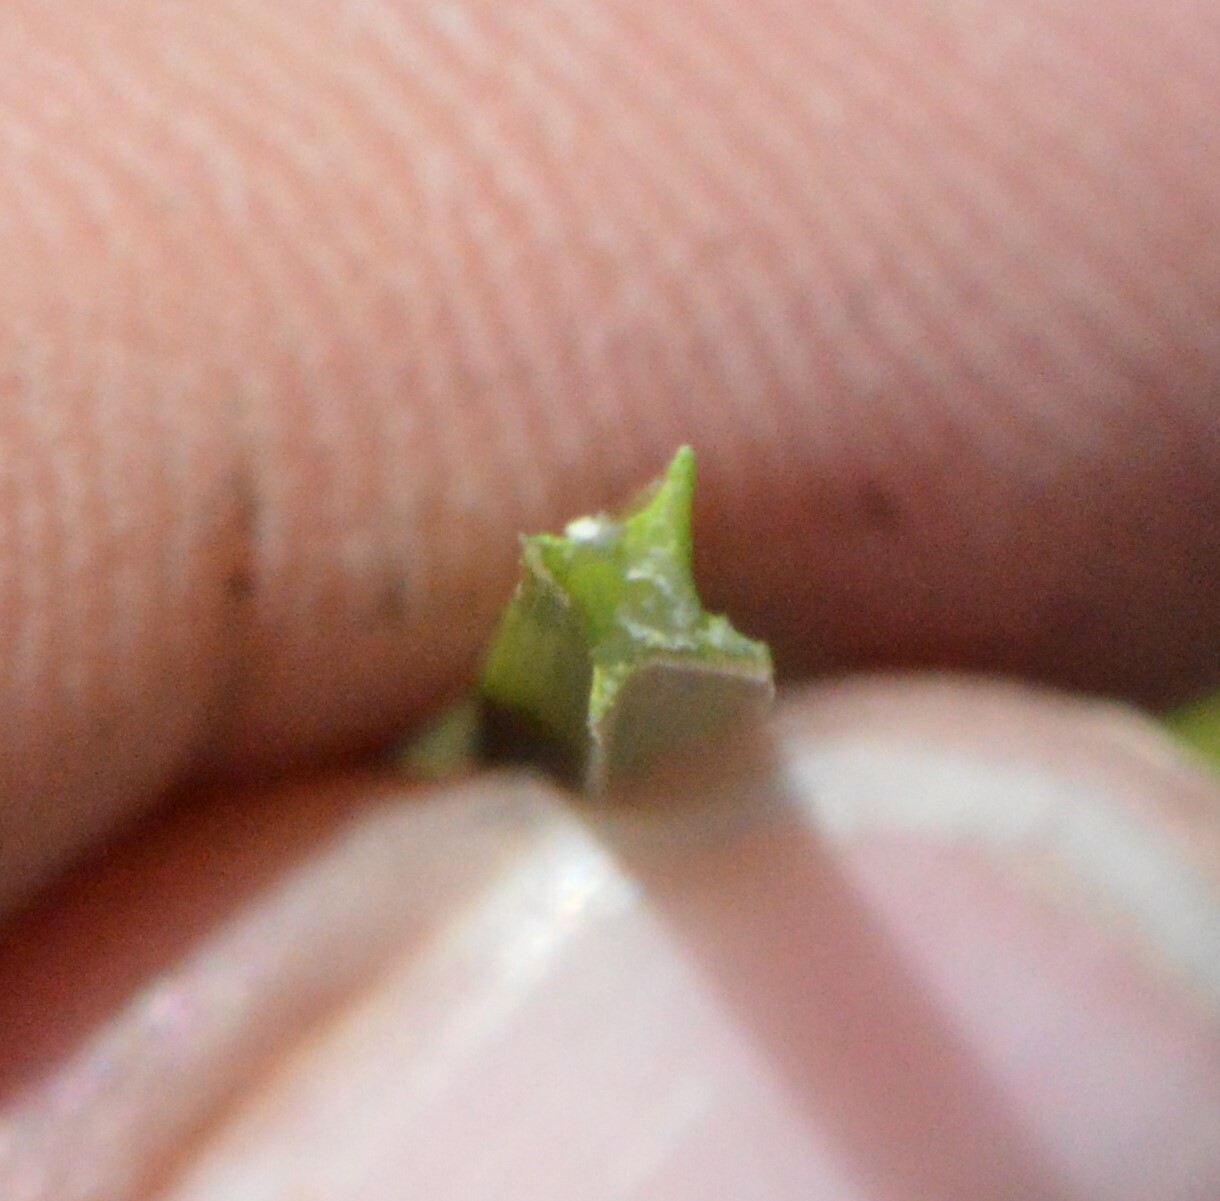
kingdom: Plantae
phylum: Tracheophyta
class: Liliopsida
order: Poales
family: Cyperaceae
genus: Eleocharis
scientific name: Eleocharis quadrangulata
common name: Square-stem spike-rush
